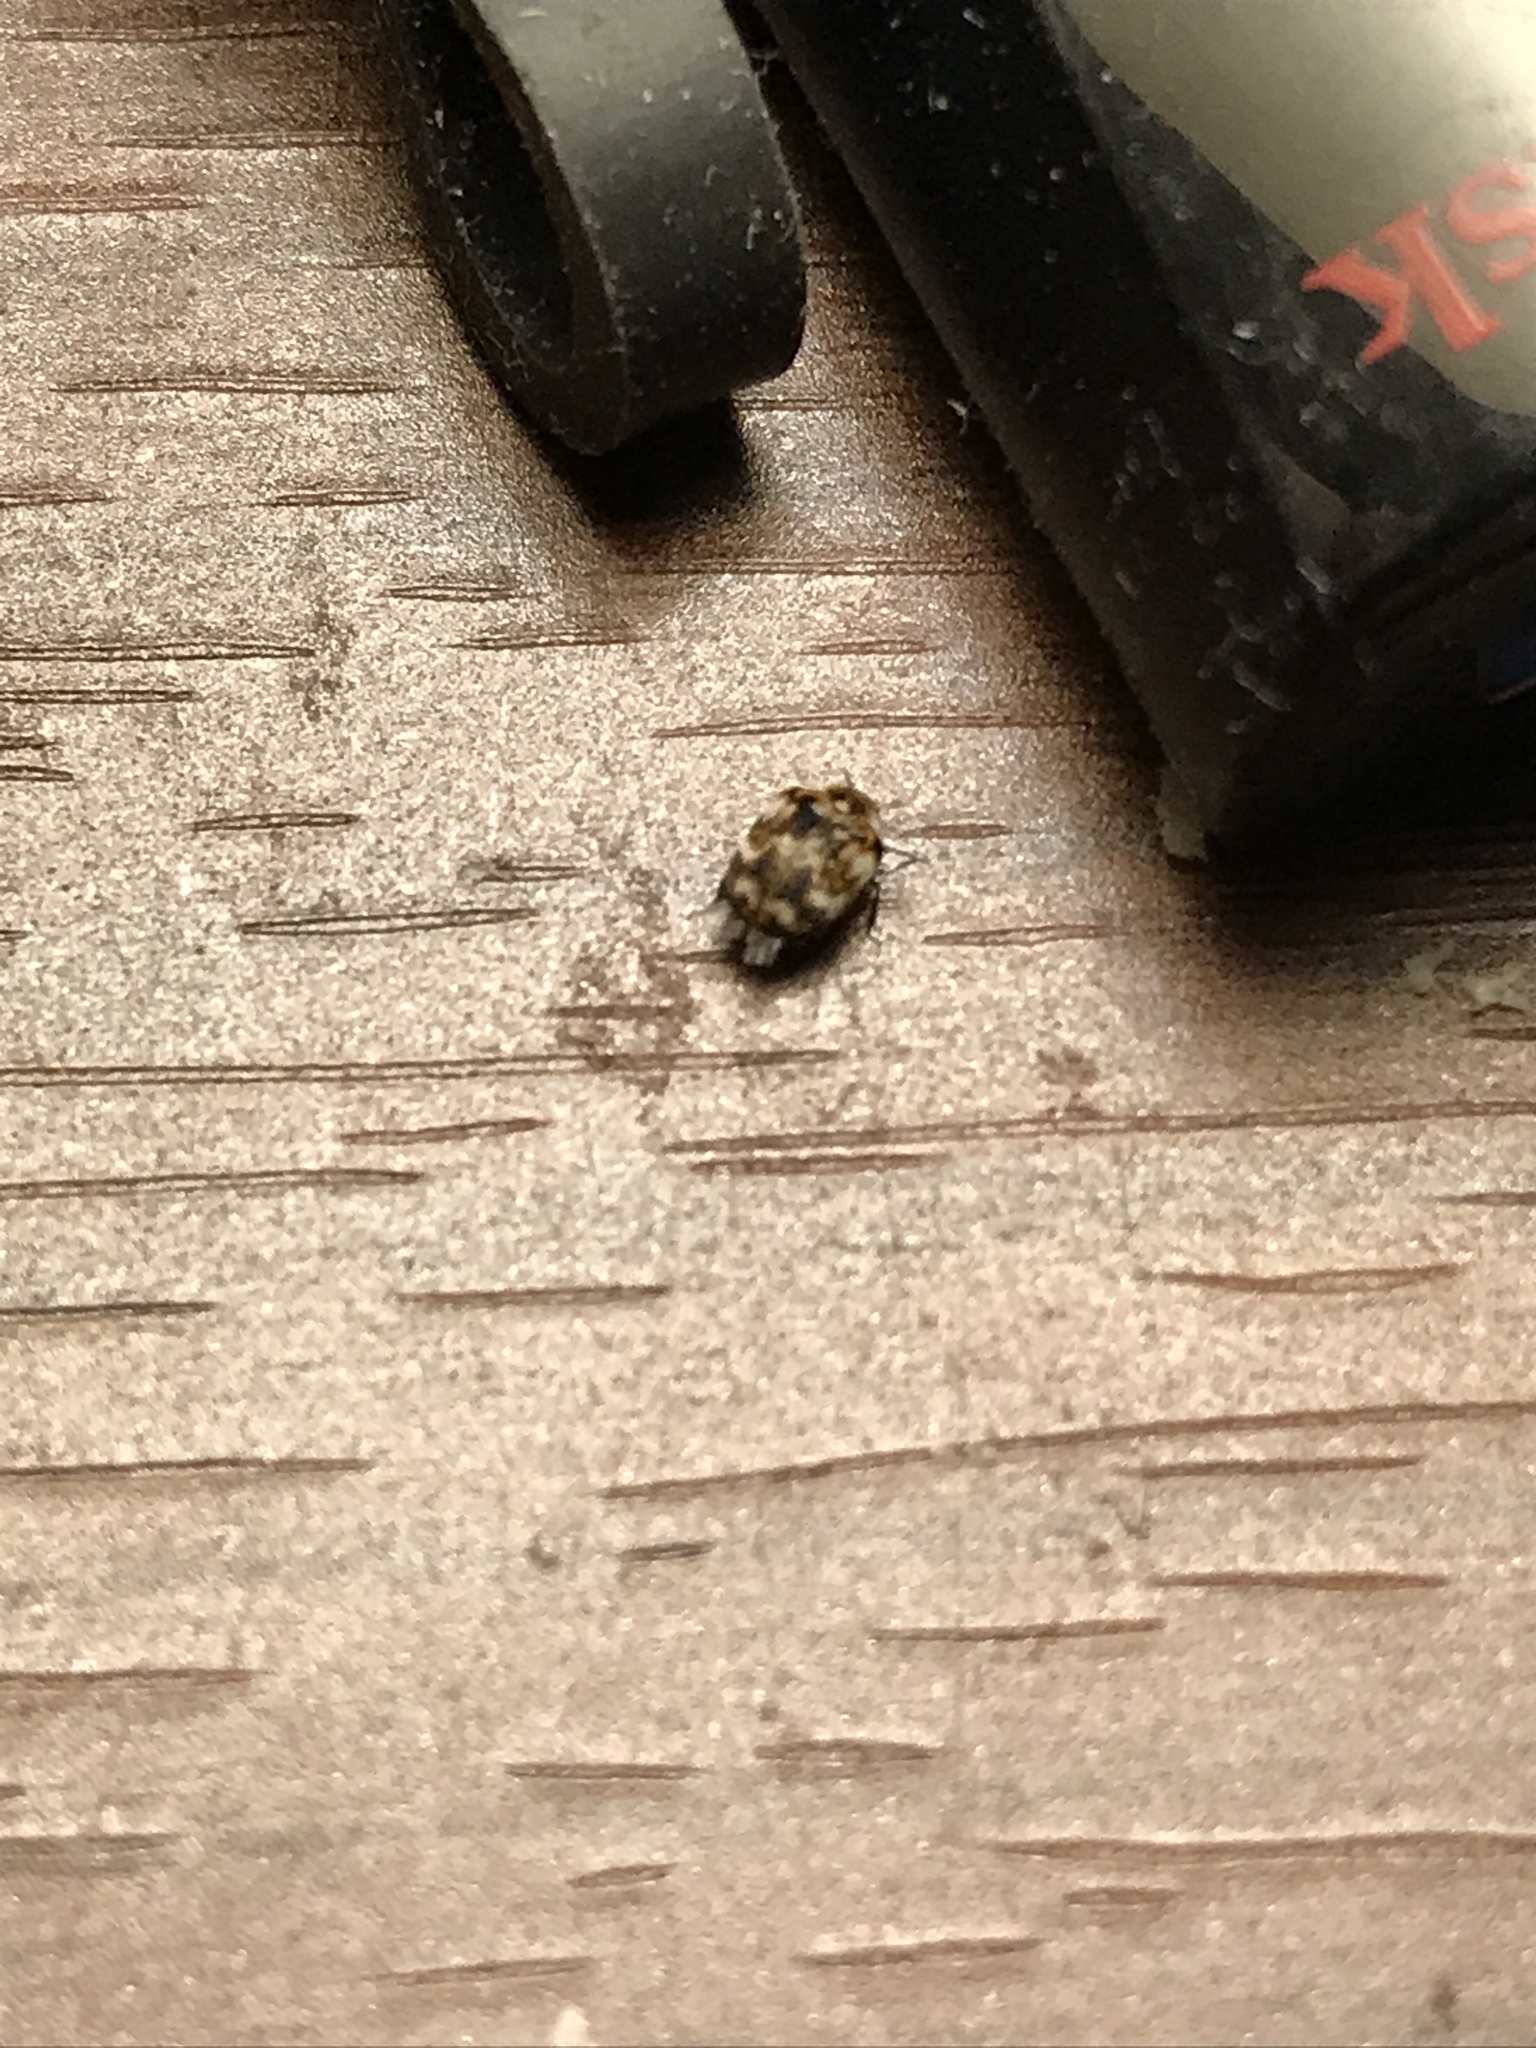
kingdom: Animalia
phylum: Arthropoda
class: Insecta
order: Coleoptera
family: Dermestidae
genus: Anthrenus
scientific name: Anthrenus verbasci
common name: Varied carpet beetle
